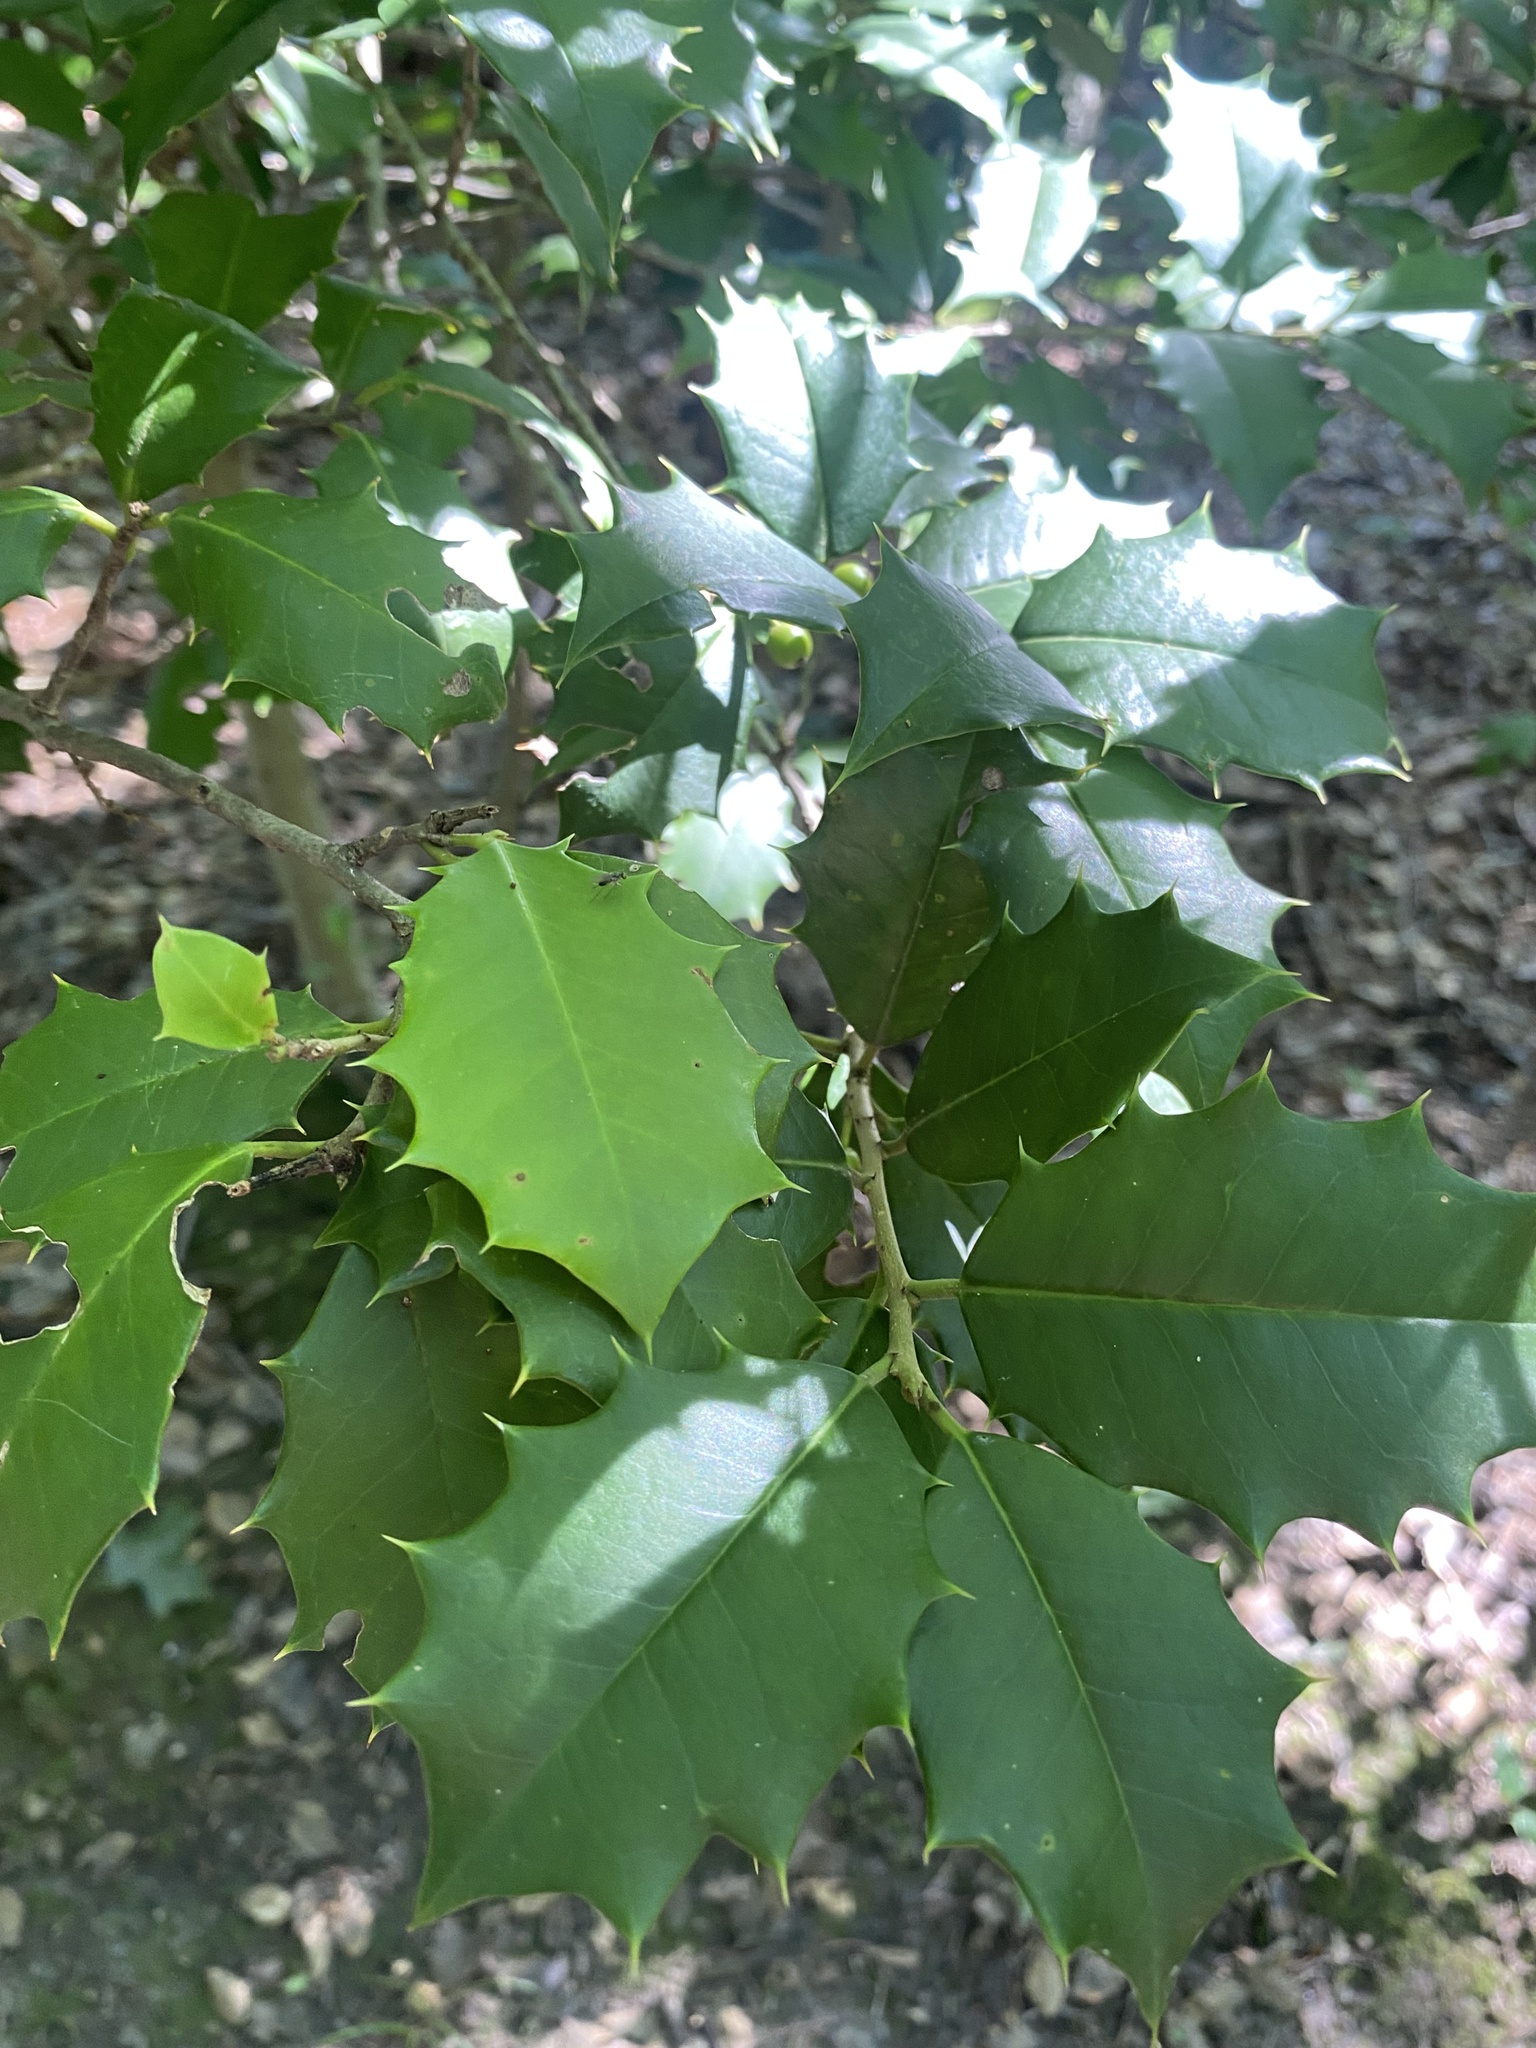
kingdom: Plantae
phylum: Tracheophyta
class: Magnoliopsida
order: Aquifoliales
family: Aquifoliaceae
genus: Ilex
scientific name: Ilex opaca
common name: American holly
